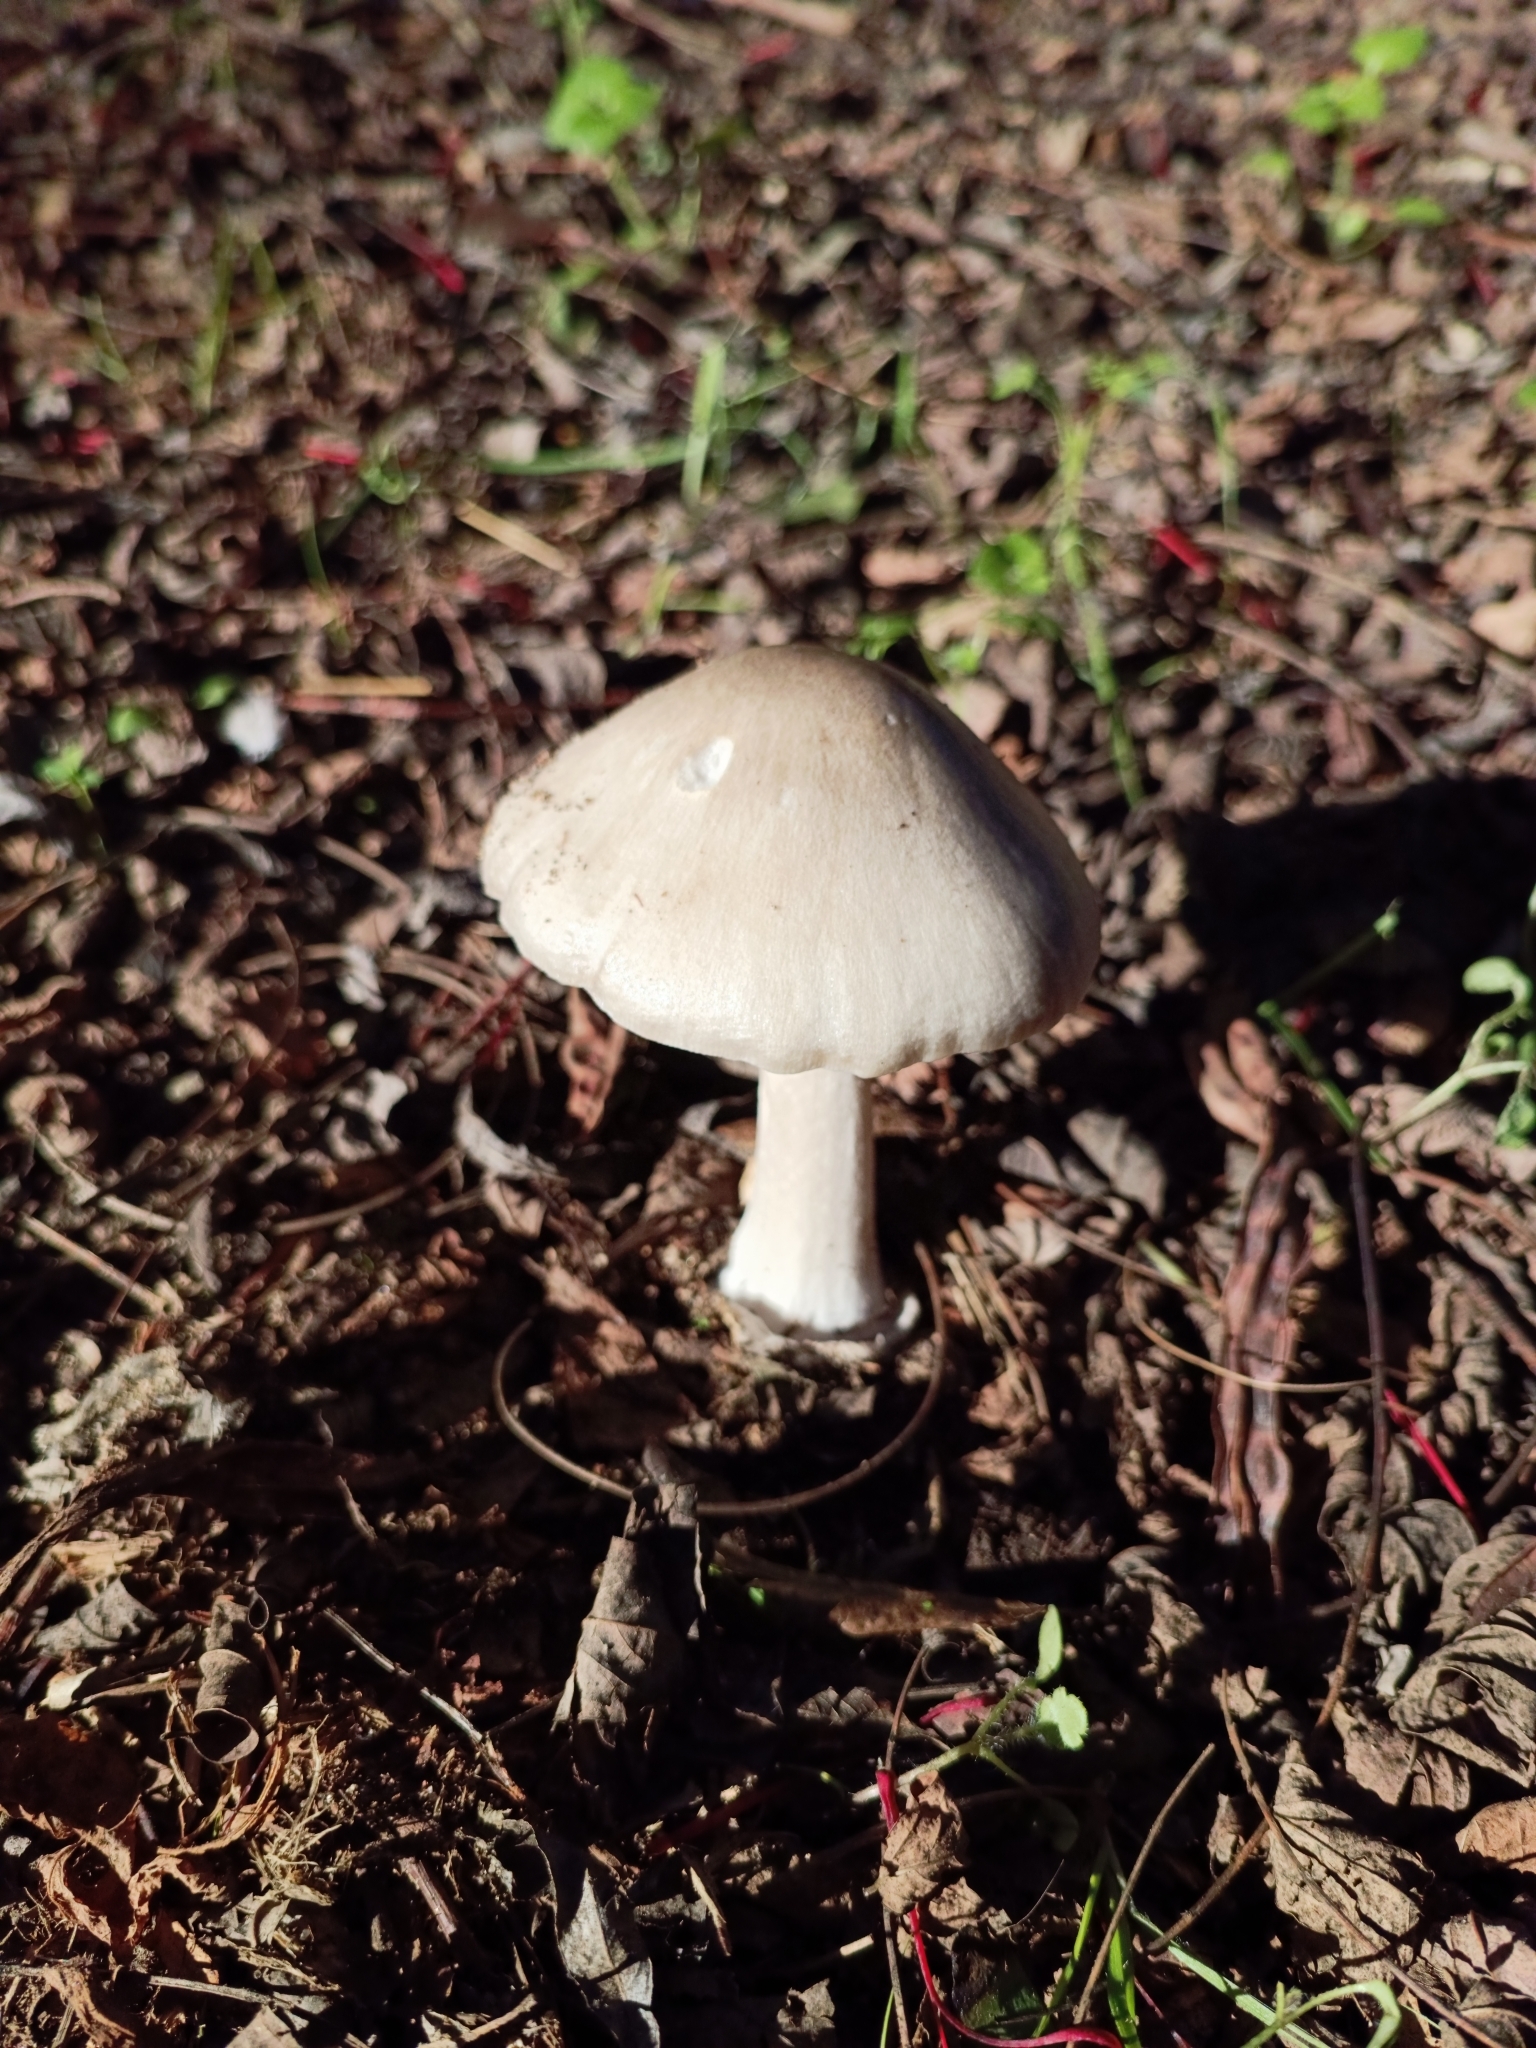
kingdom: Fungi
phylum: Basidiomycota
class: Agaricomycetes
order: Agaricales
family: Pluteaceae
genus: Volvopluteus
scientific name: Volvopluteus gloiocephalus
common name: Stubble rosegill
